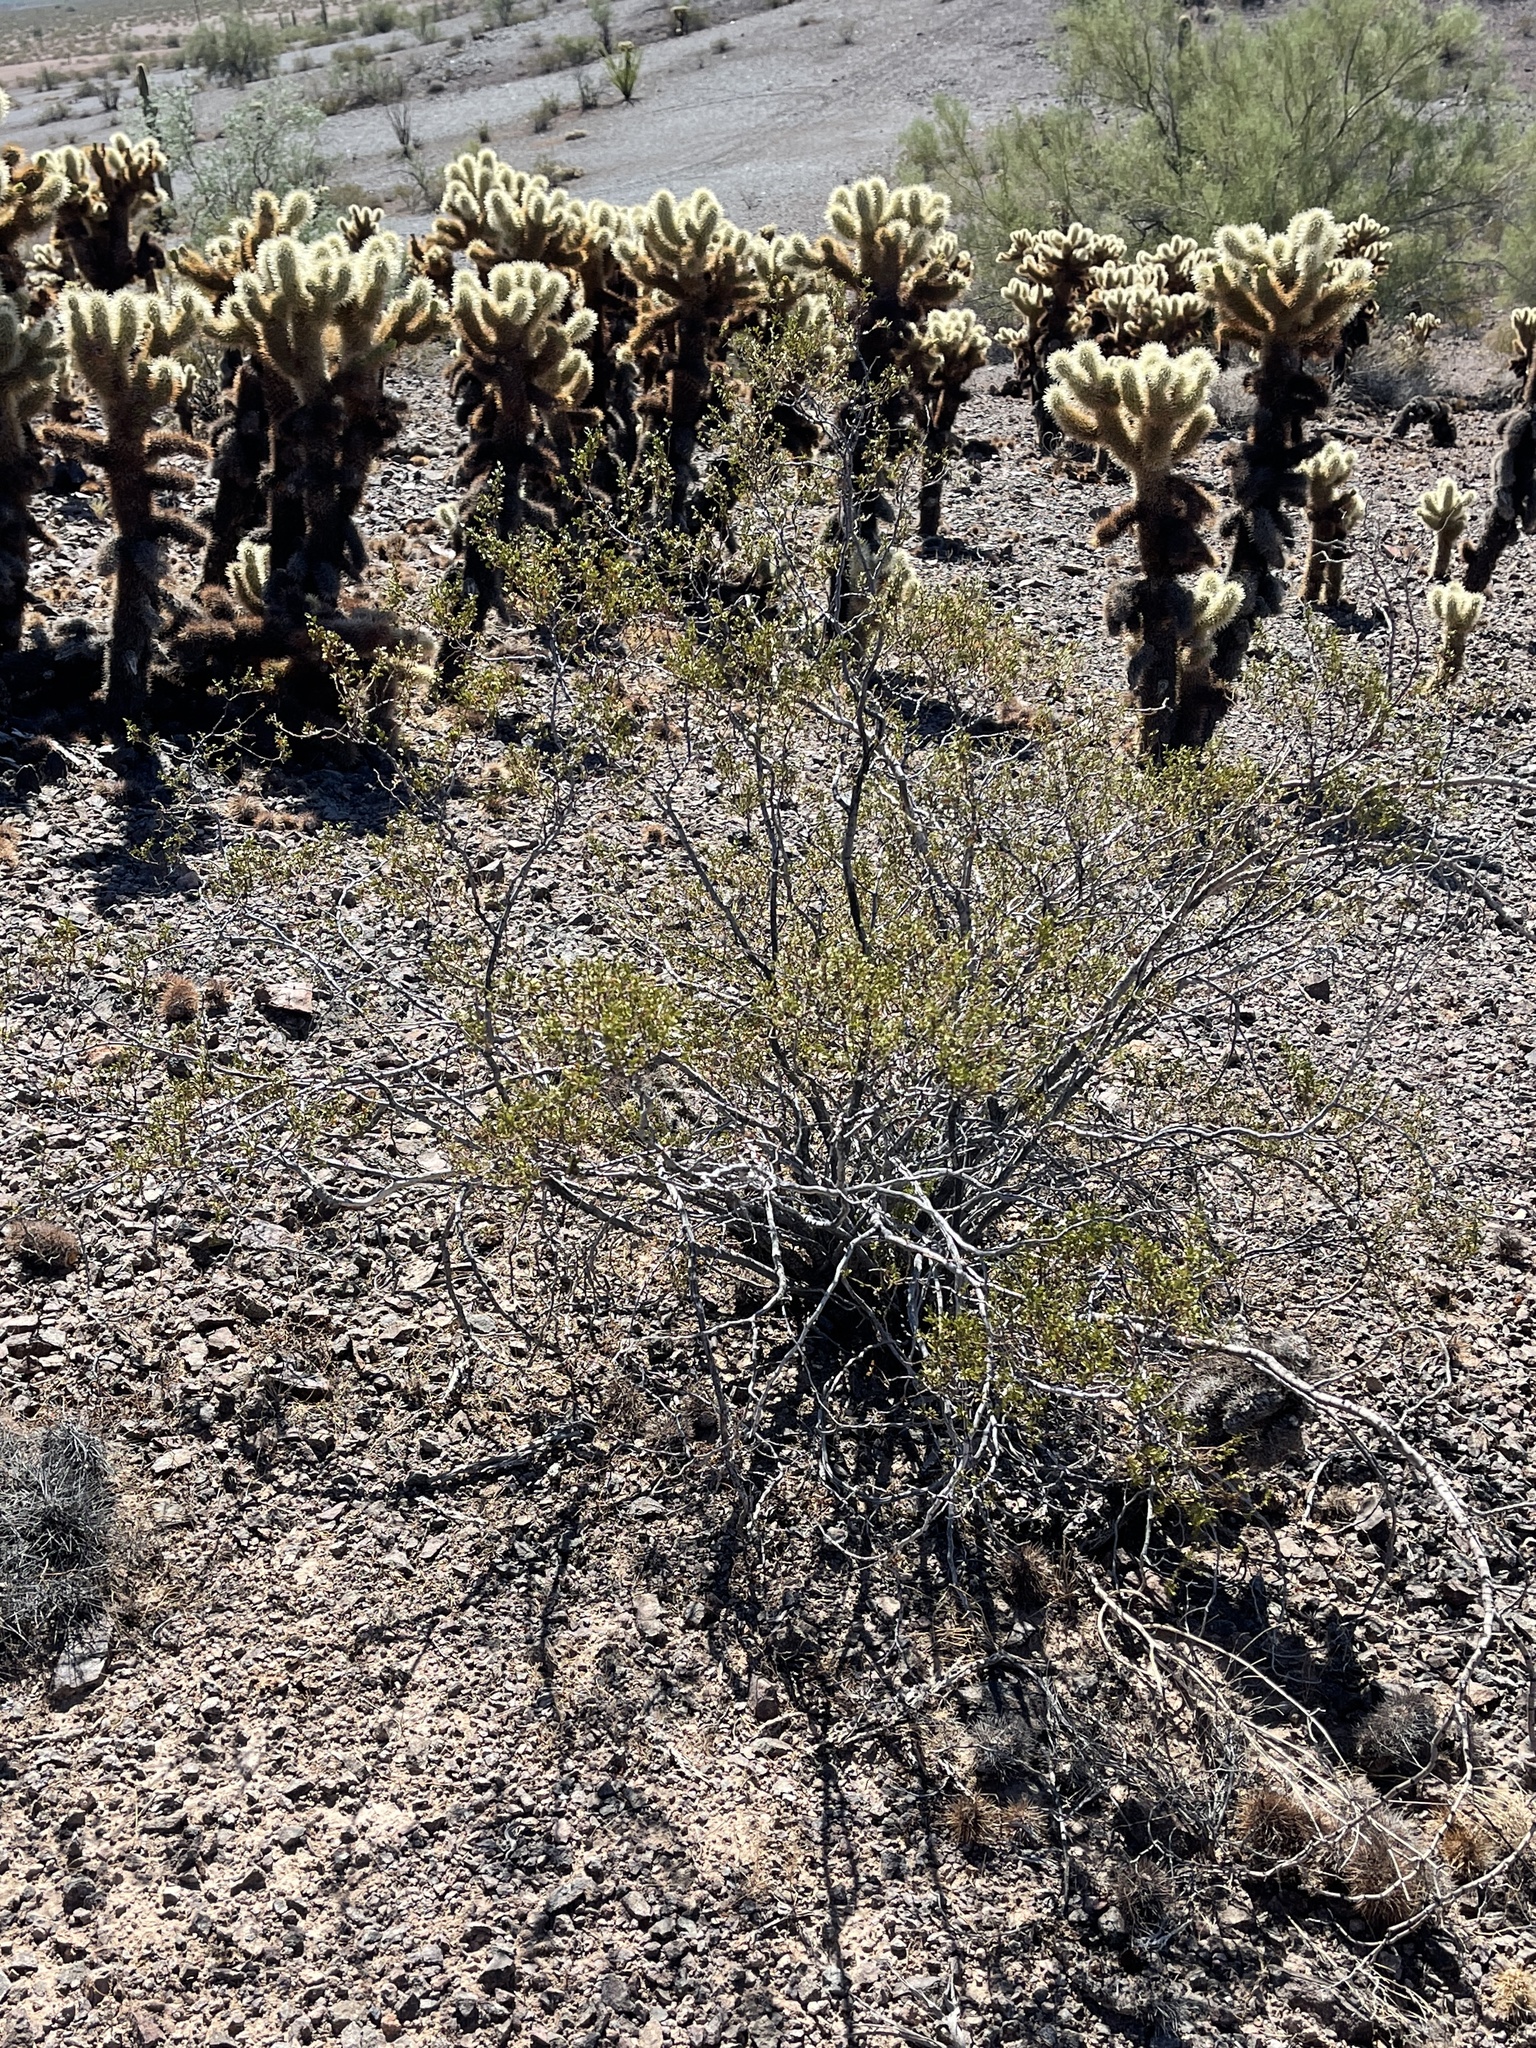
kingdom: Plantae
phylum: Tracheophyta
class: Magnoliopsida
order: Zygophyllales
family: Zygophyllaceae
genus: Larrea
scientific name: Larrea tridentata
